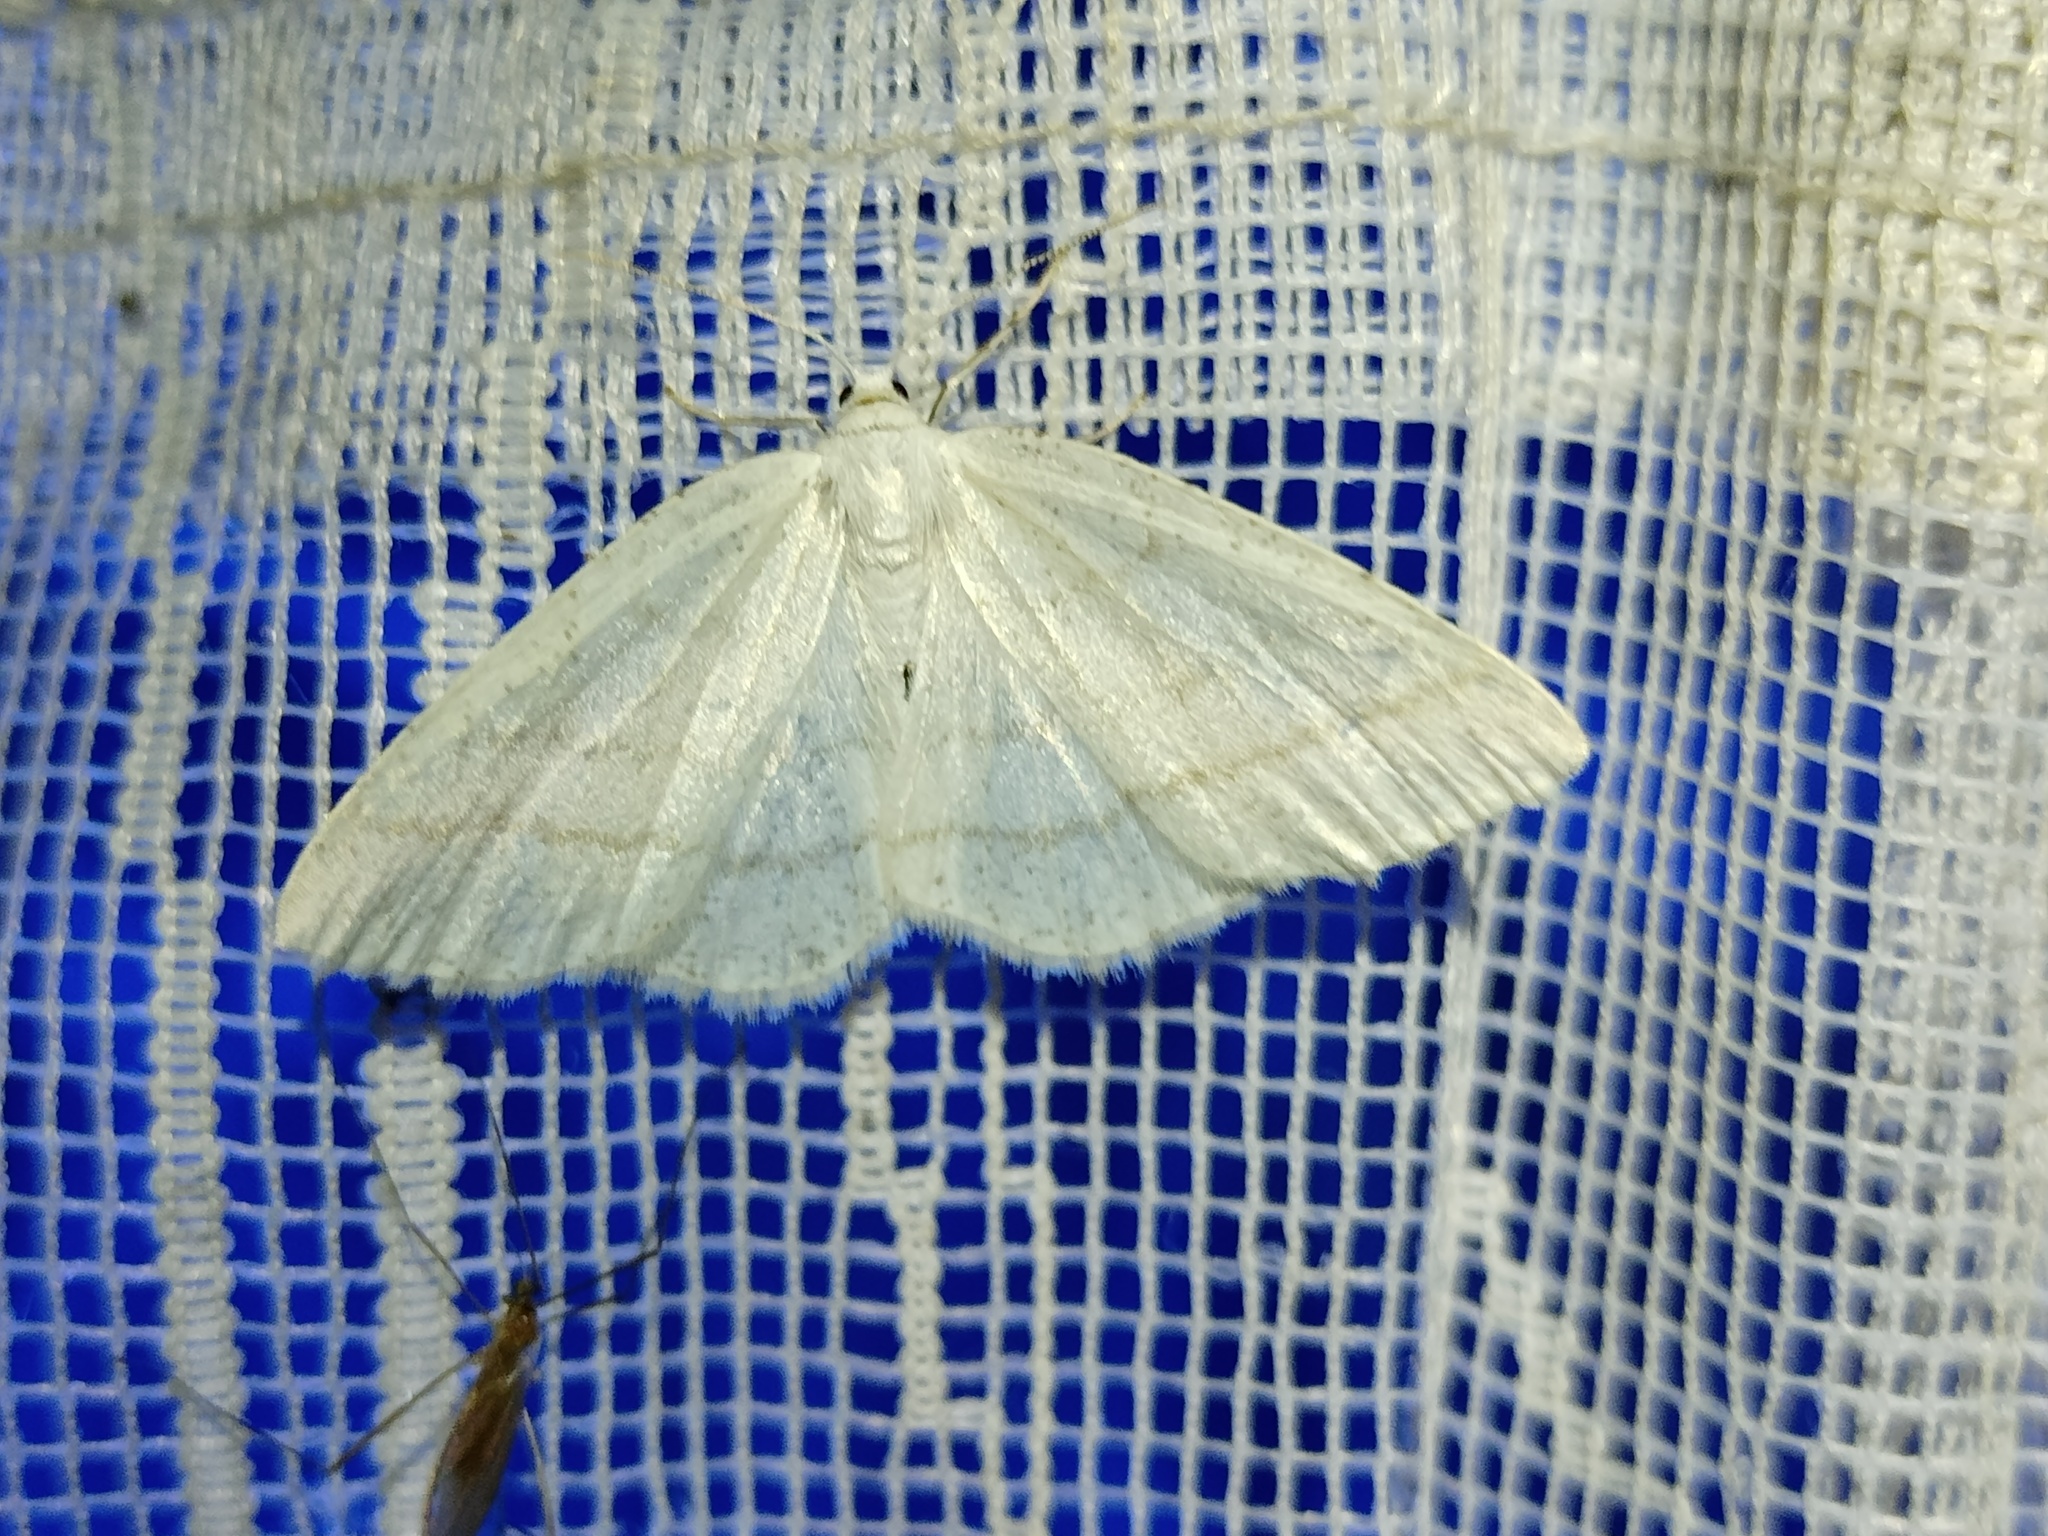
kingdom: Animalia
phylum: Arthropoda
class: Insecta
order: Lepidoptera
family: Geometridae
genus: Cabera
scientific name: Cabera pusaria
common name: Common white wave
